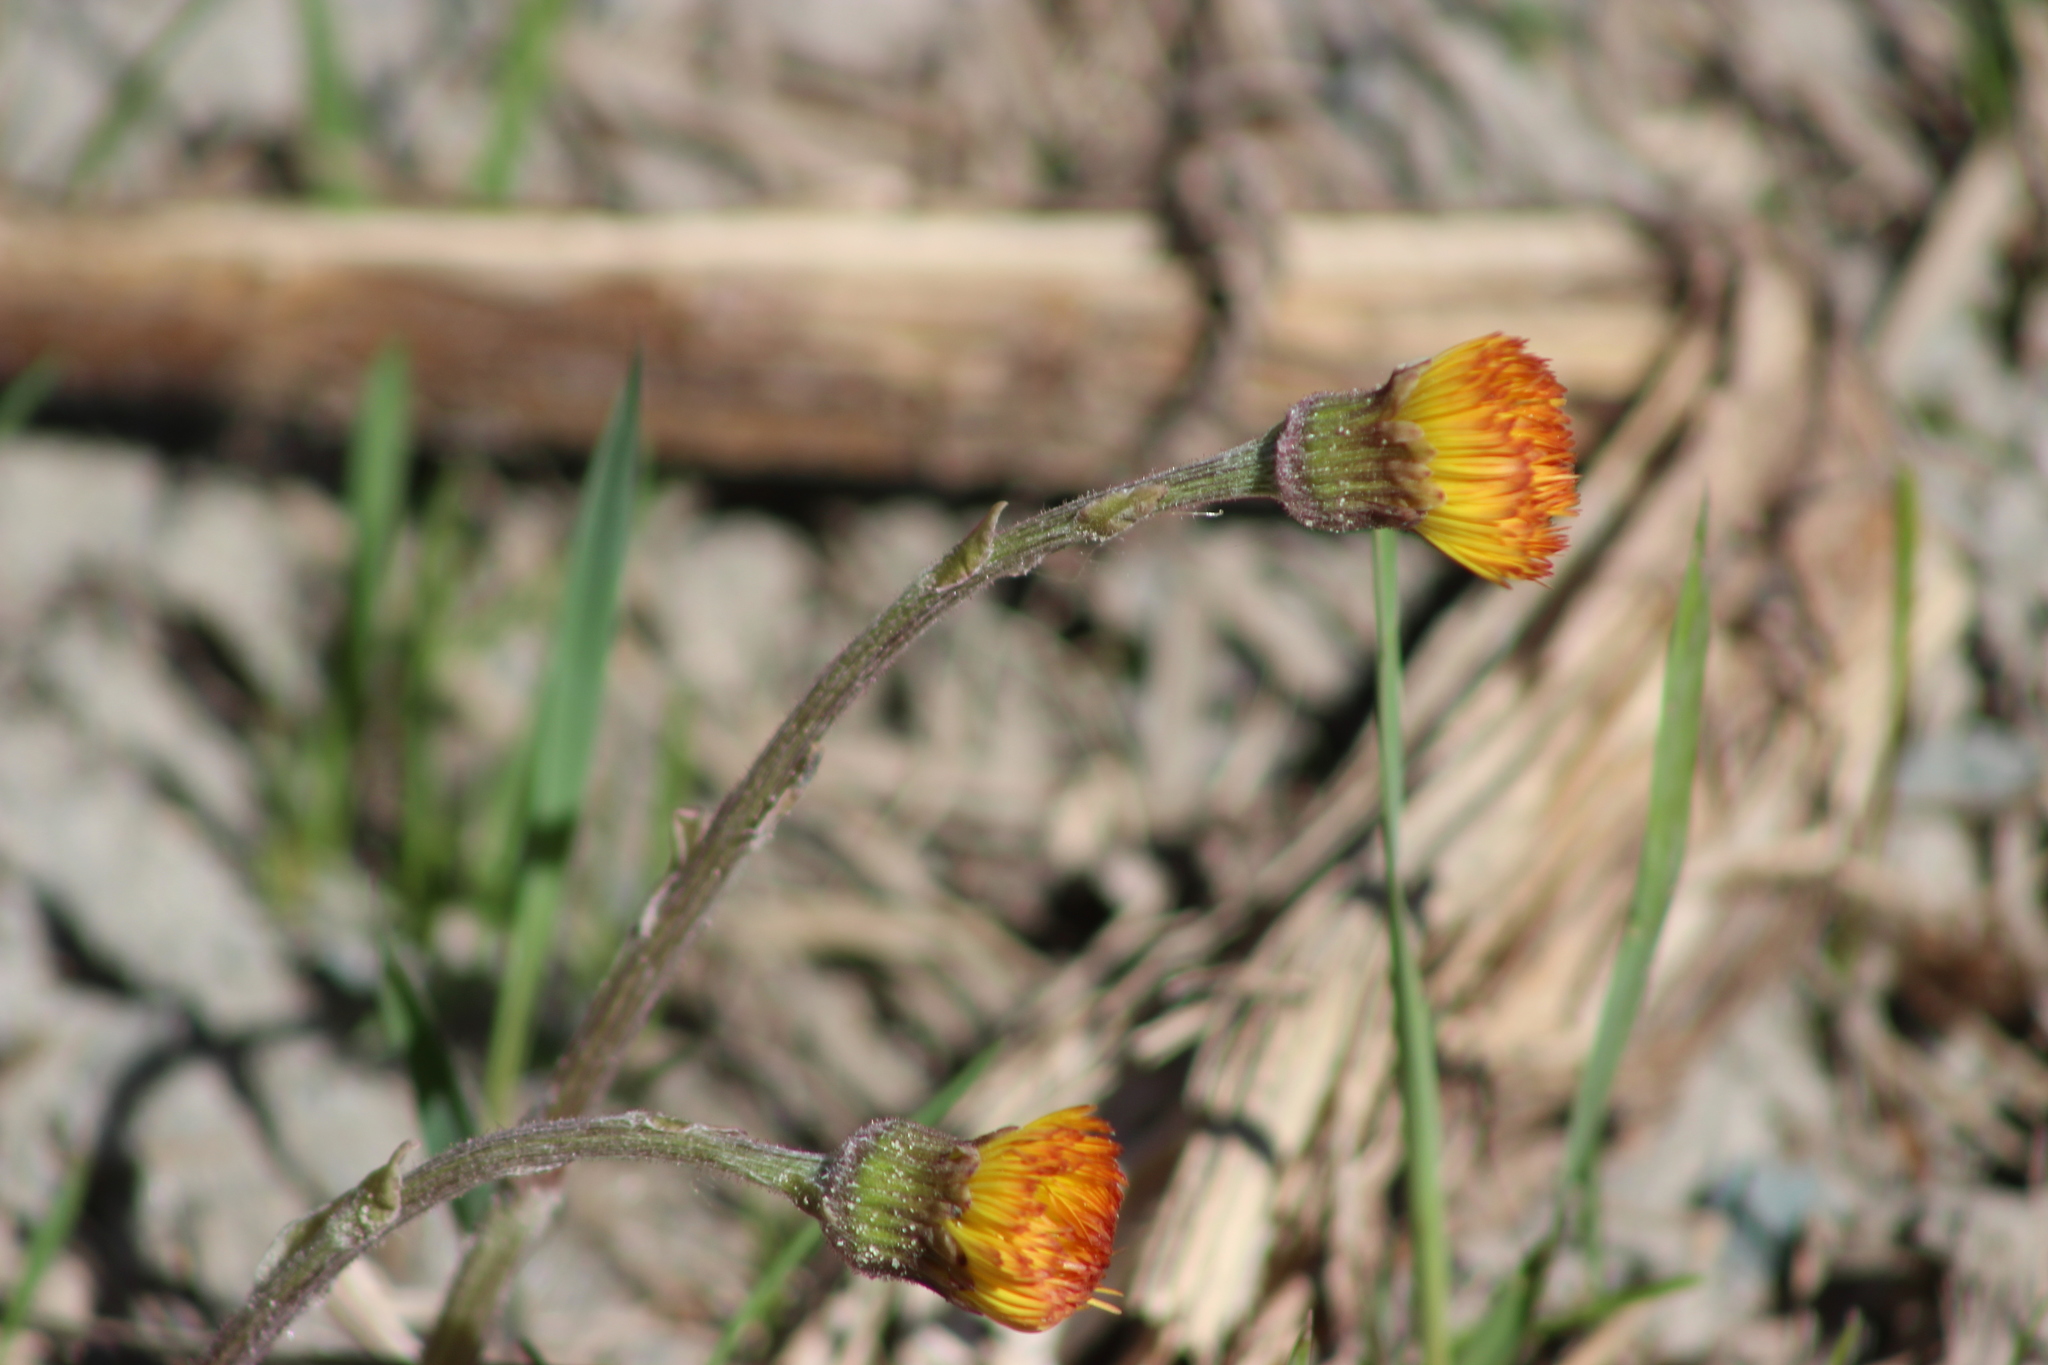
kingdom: Plantae
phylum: Tracheophyta
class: Magnoliopsida
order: Asterales
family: Asteraceae
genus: Tussilago
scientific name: Tussilago farfara
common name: Coltsfoot
